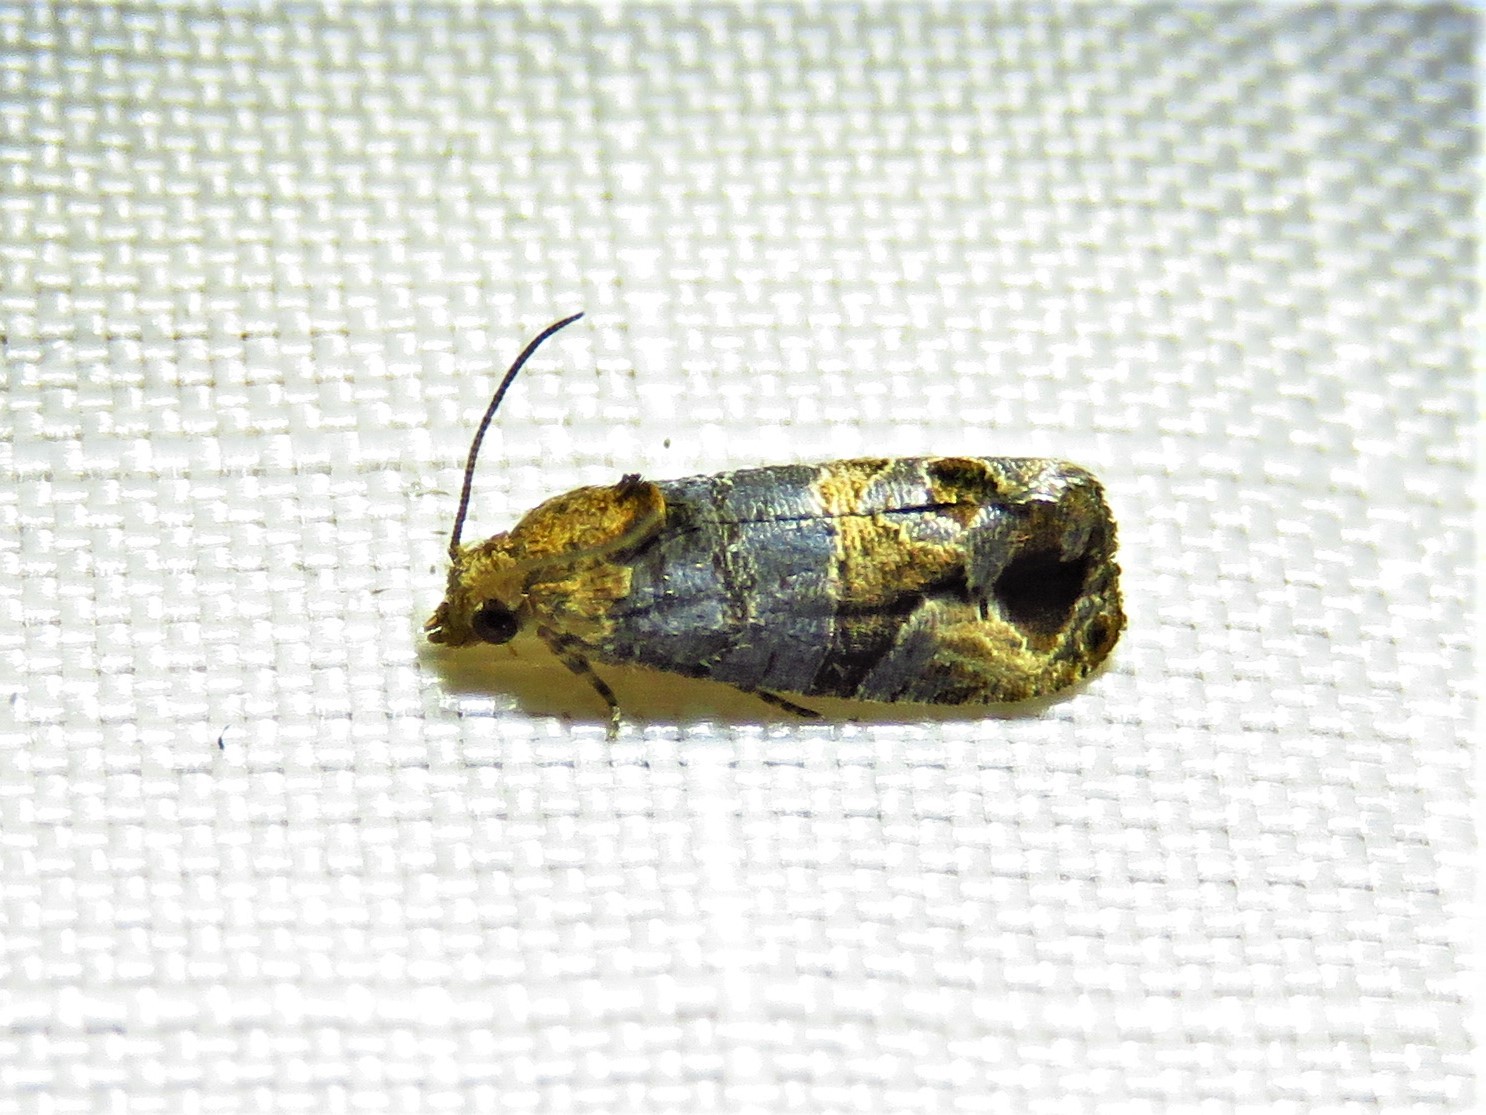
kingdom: Animalia
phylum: Arthropoda
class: Insecta
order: Lepidoptera
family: Tortricidae
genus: Paralobesia
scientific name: Paralobesia viteana
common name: Grape berry moth
